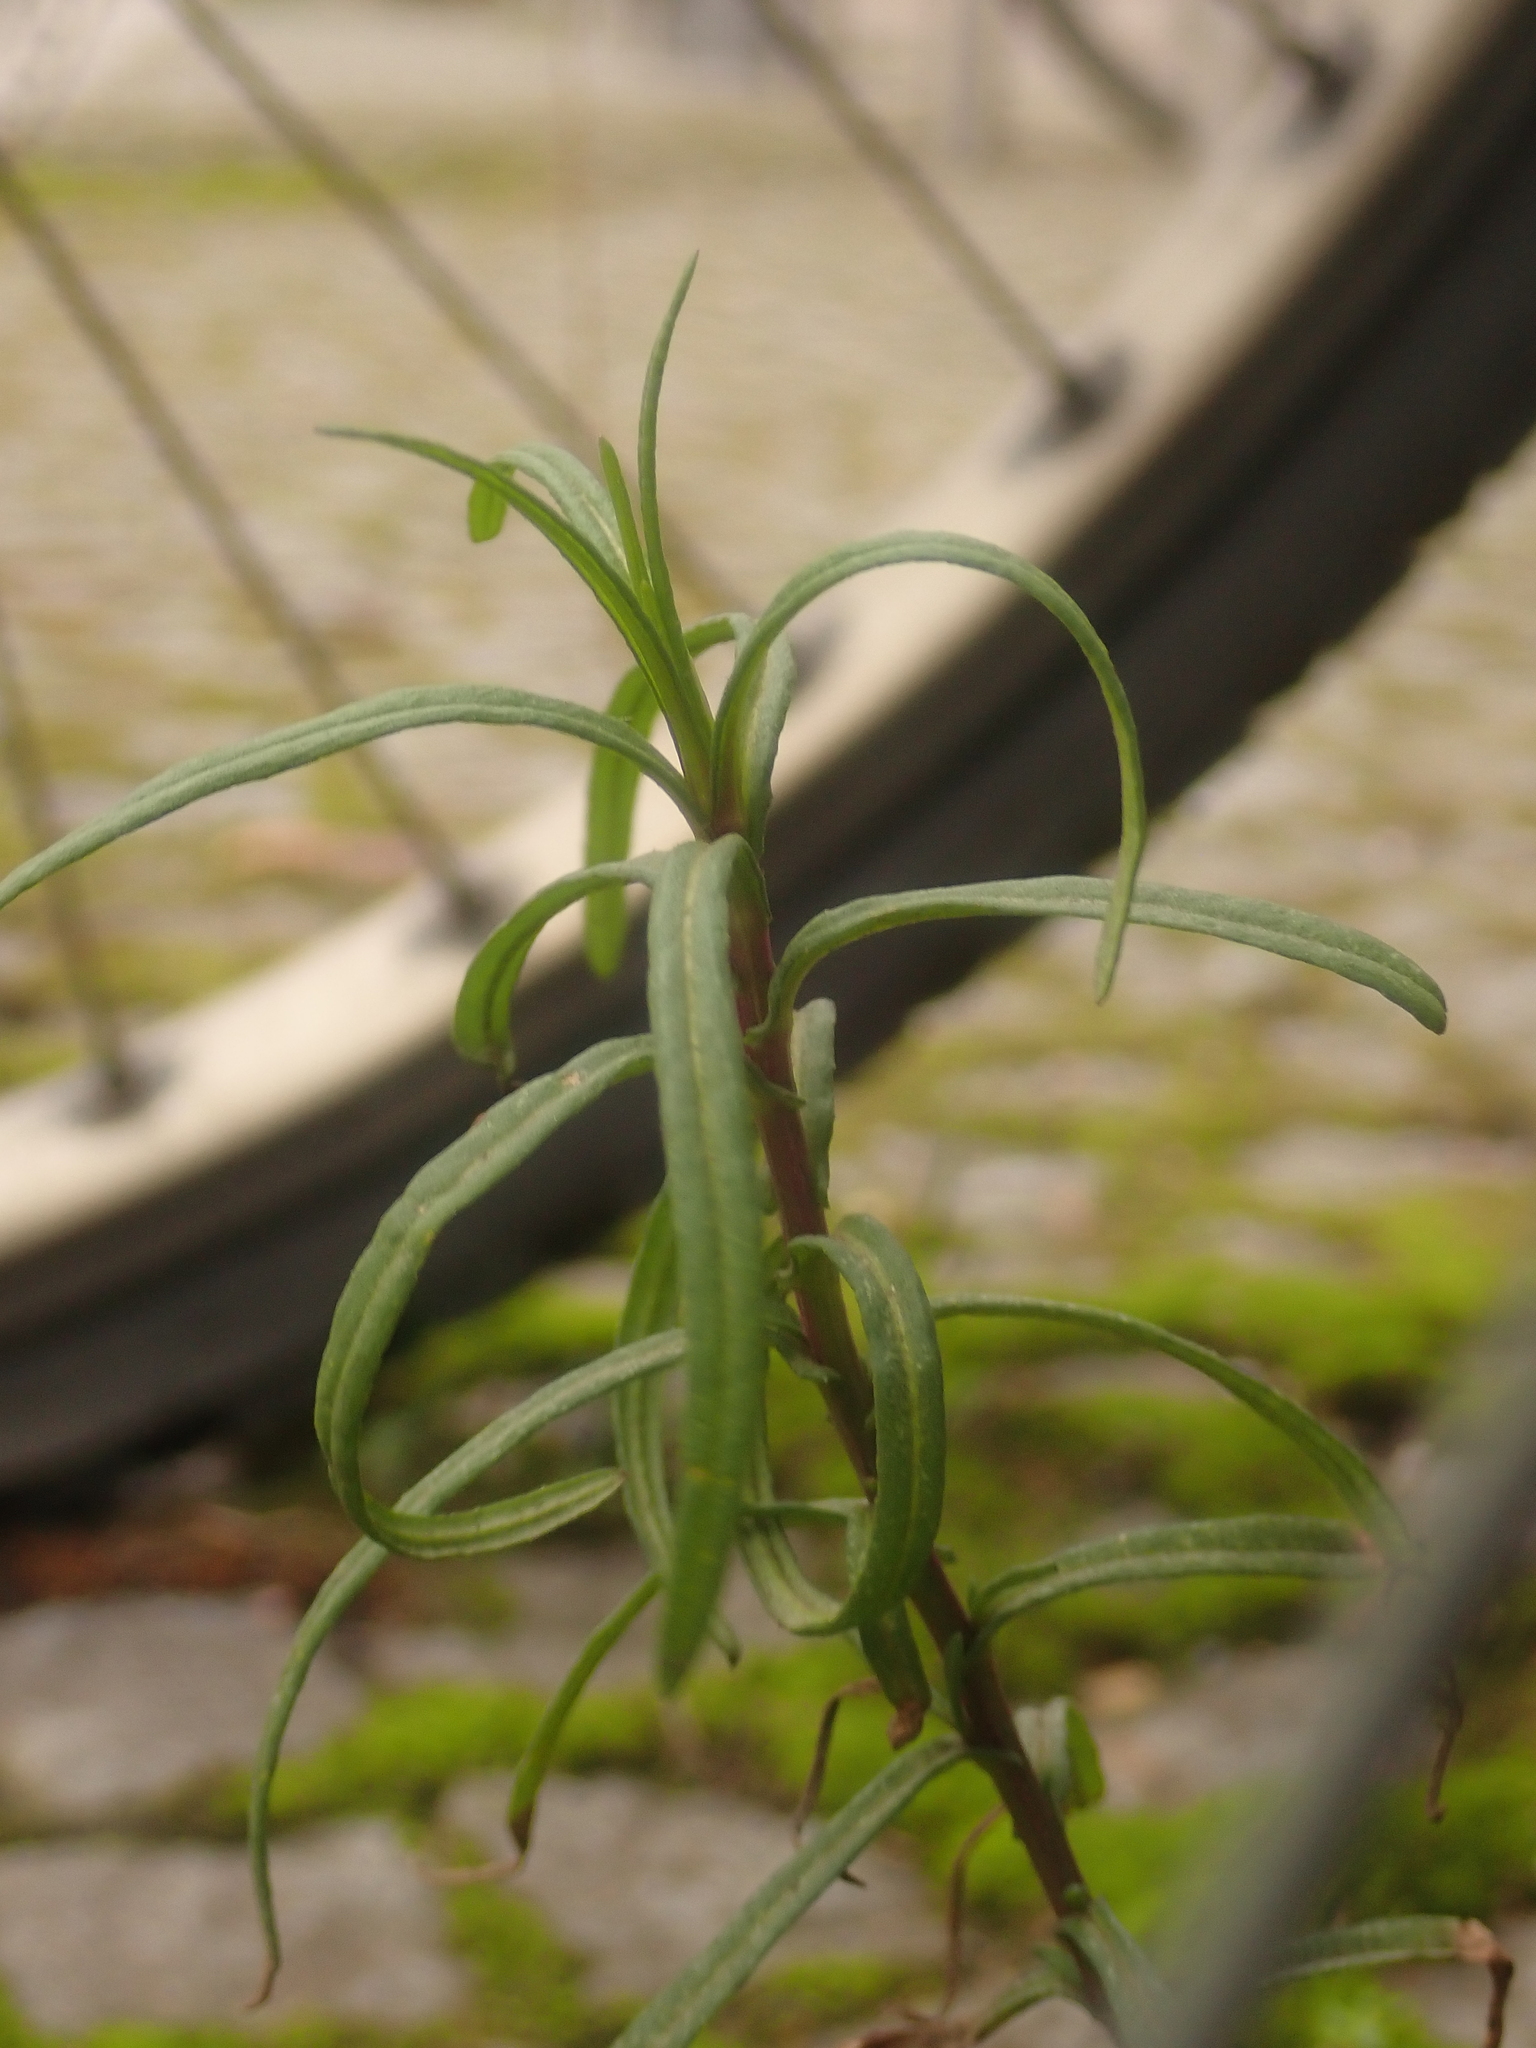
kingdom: Plantae
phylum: Tracheophyta
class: Magnoliopsida
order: Asterales
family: Asteraceae
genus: Senecio
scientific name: Senecio inaequidens
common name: Narrow-leaved ragwort
